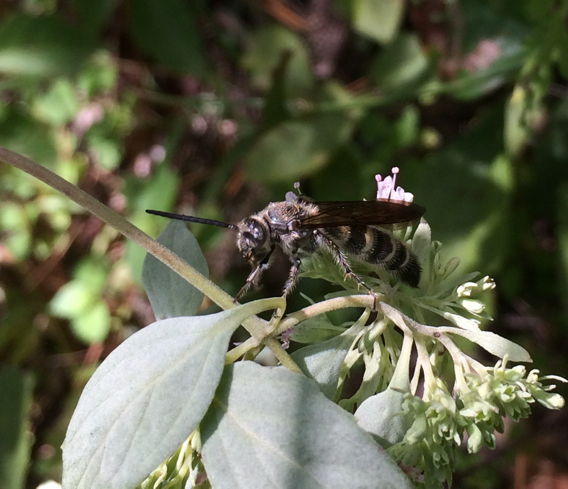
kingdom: Animalia
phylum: Arthropoda
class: Insecta
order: Hymenoptera
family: Scoliidae
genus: Dielis
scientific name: Dielis
